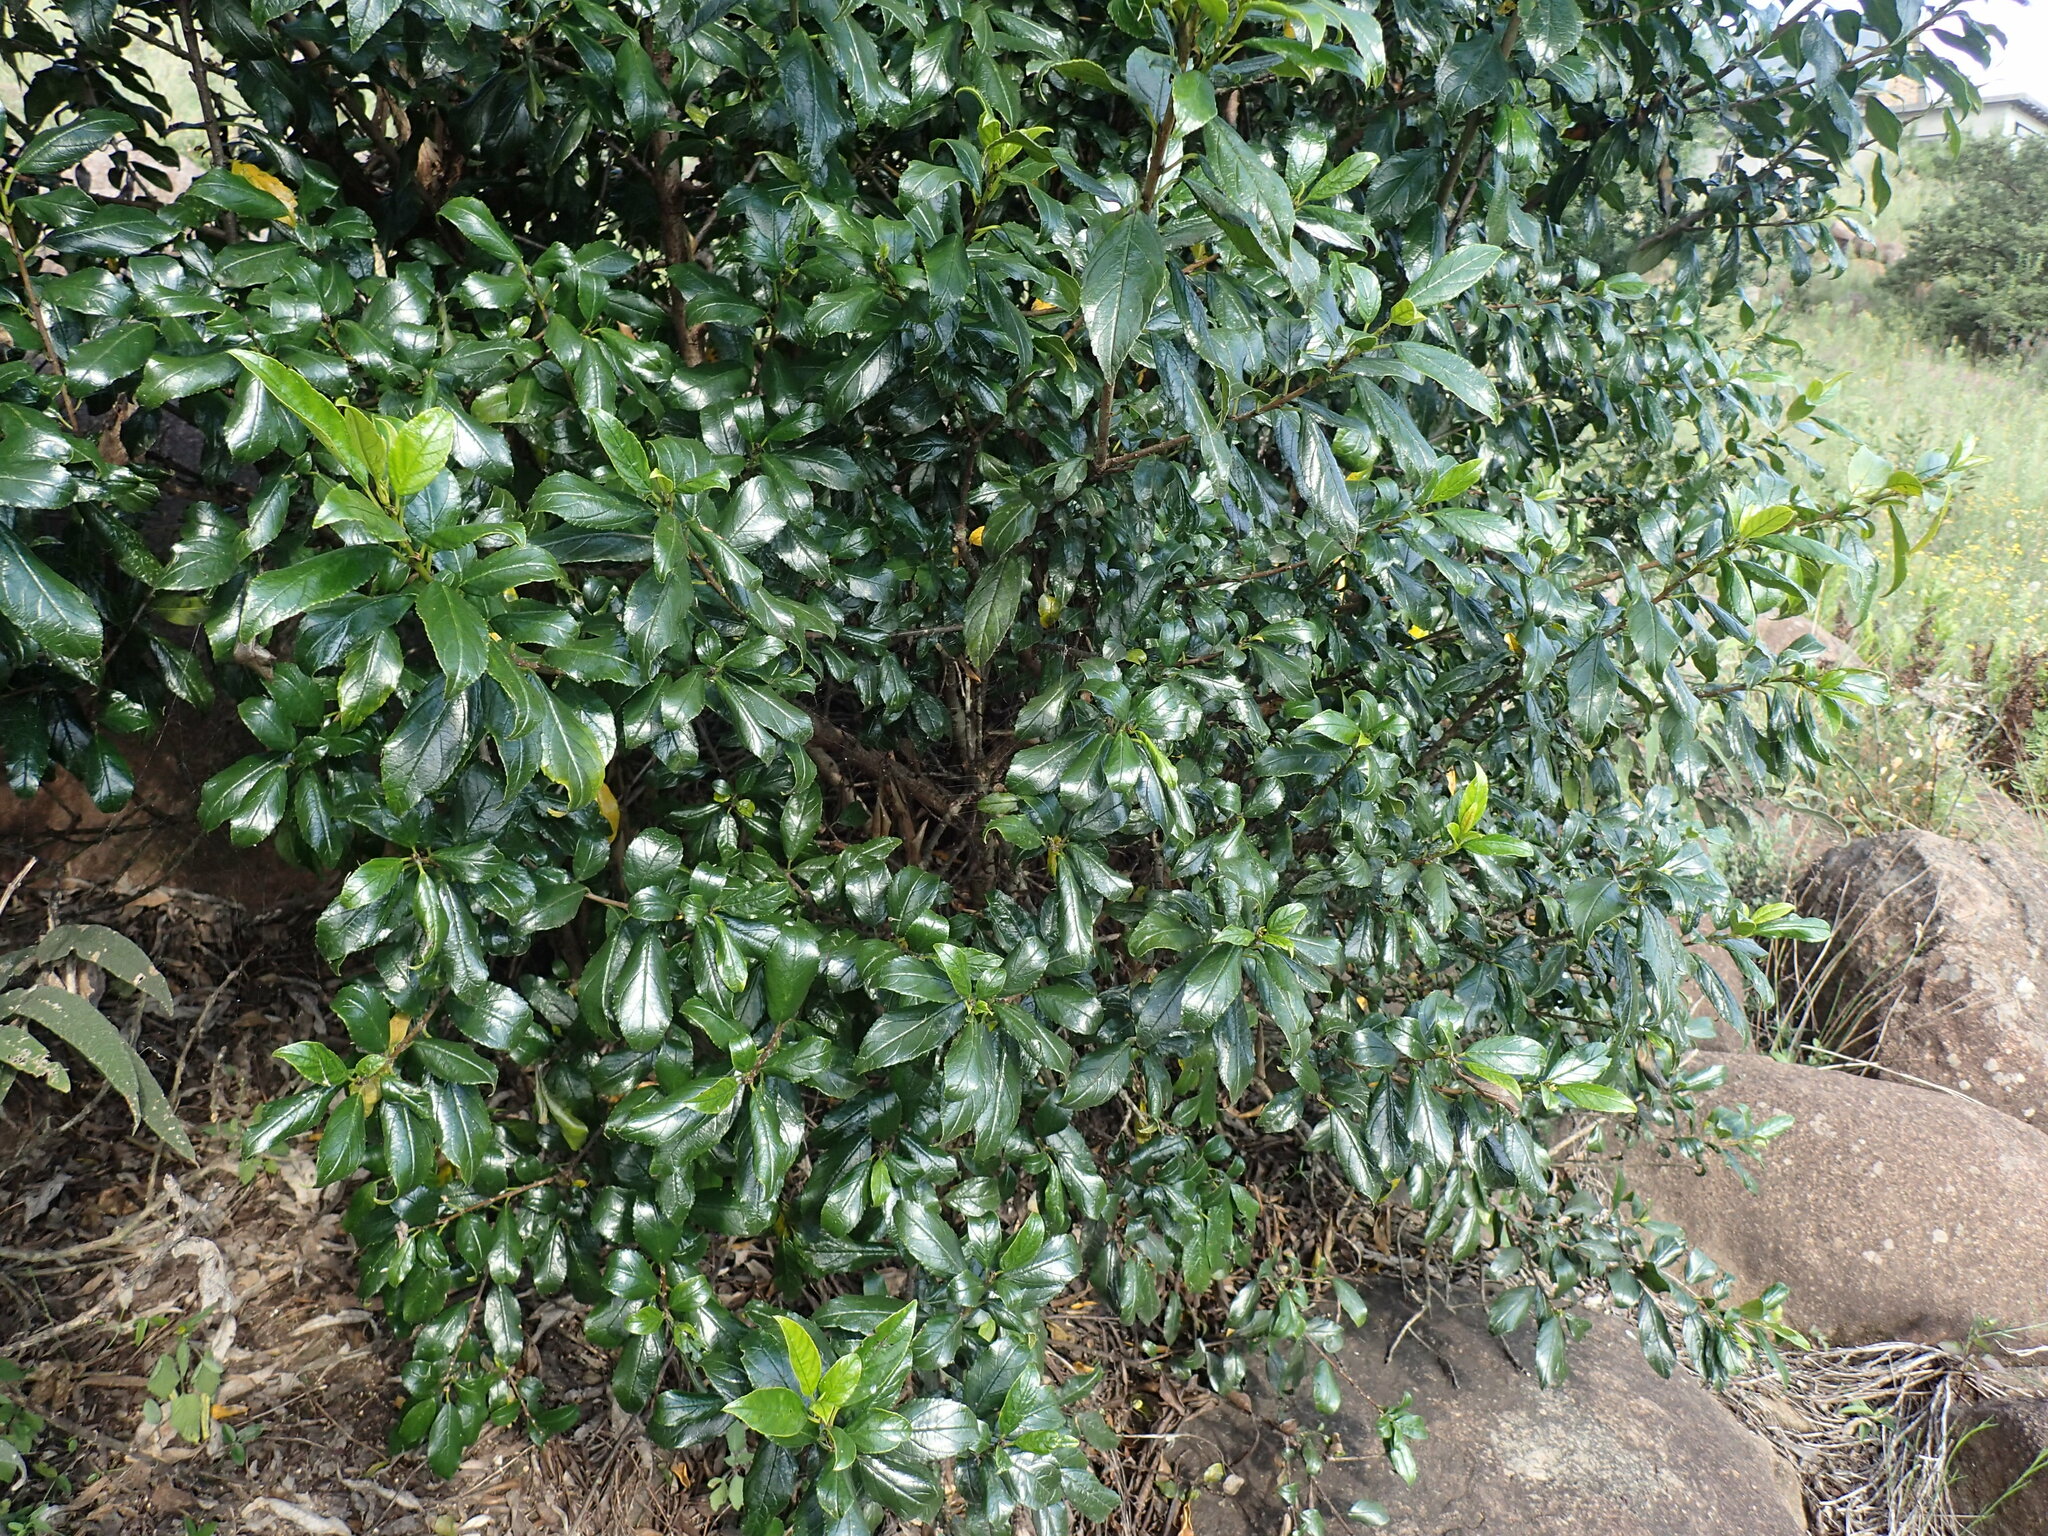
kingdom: Plantae
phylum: Tracheophyta
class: Magnoliopsida
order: Rosales
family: Rhamnaceae
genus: Rhamnus
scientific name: Rhamnus prinoides
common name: Dogwood
